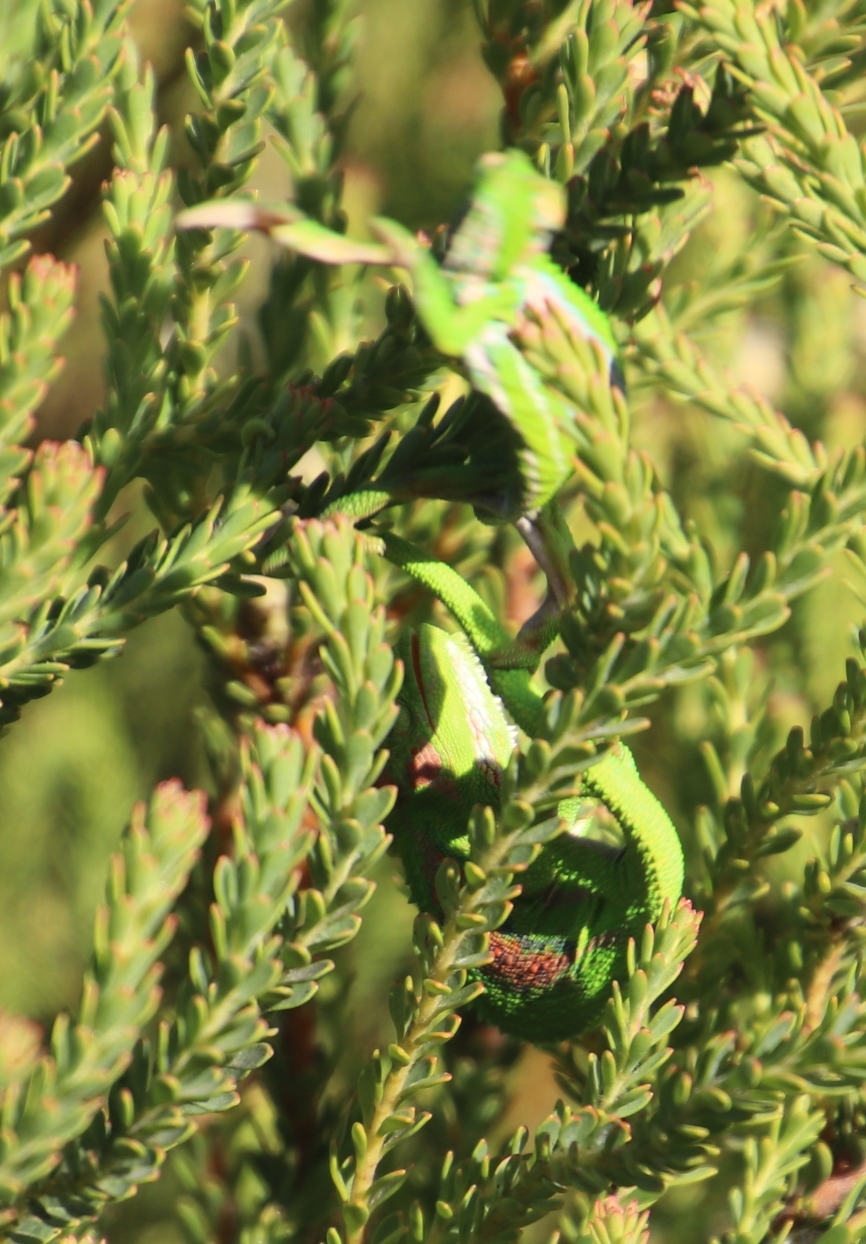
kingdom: Animalia
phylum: Chordata
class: Squamata
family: Chamaeleonidae
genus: Bradypodion
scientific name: Bradypodion pumilum
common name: Cape dwarf chameleon
